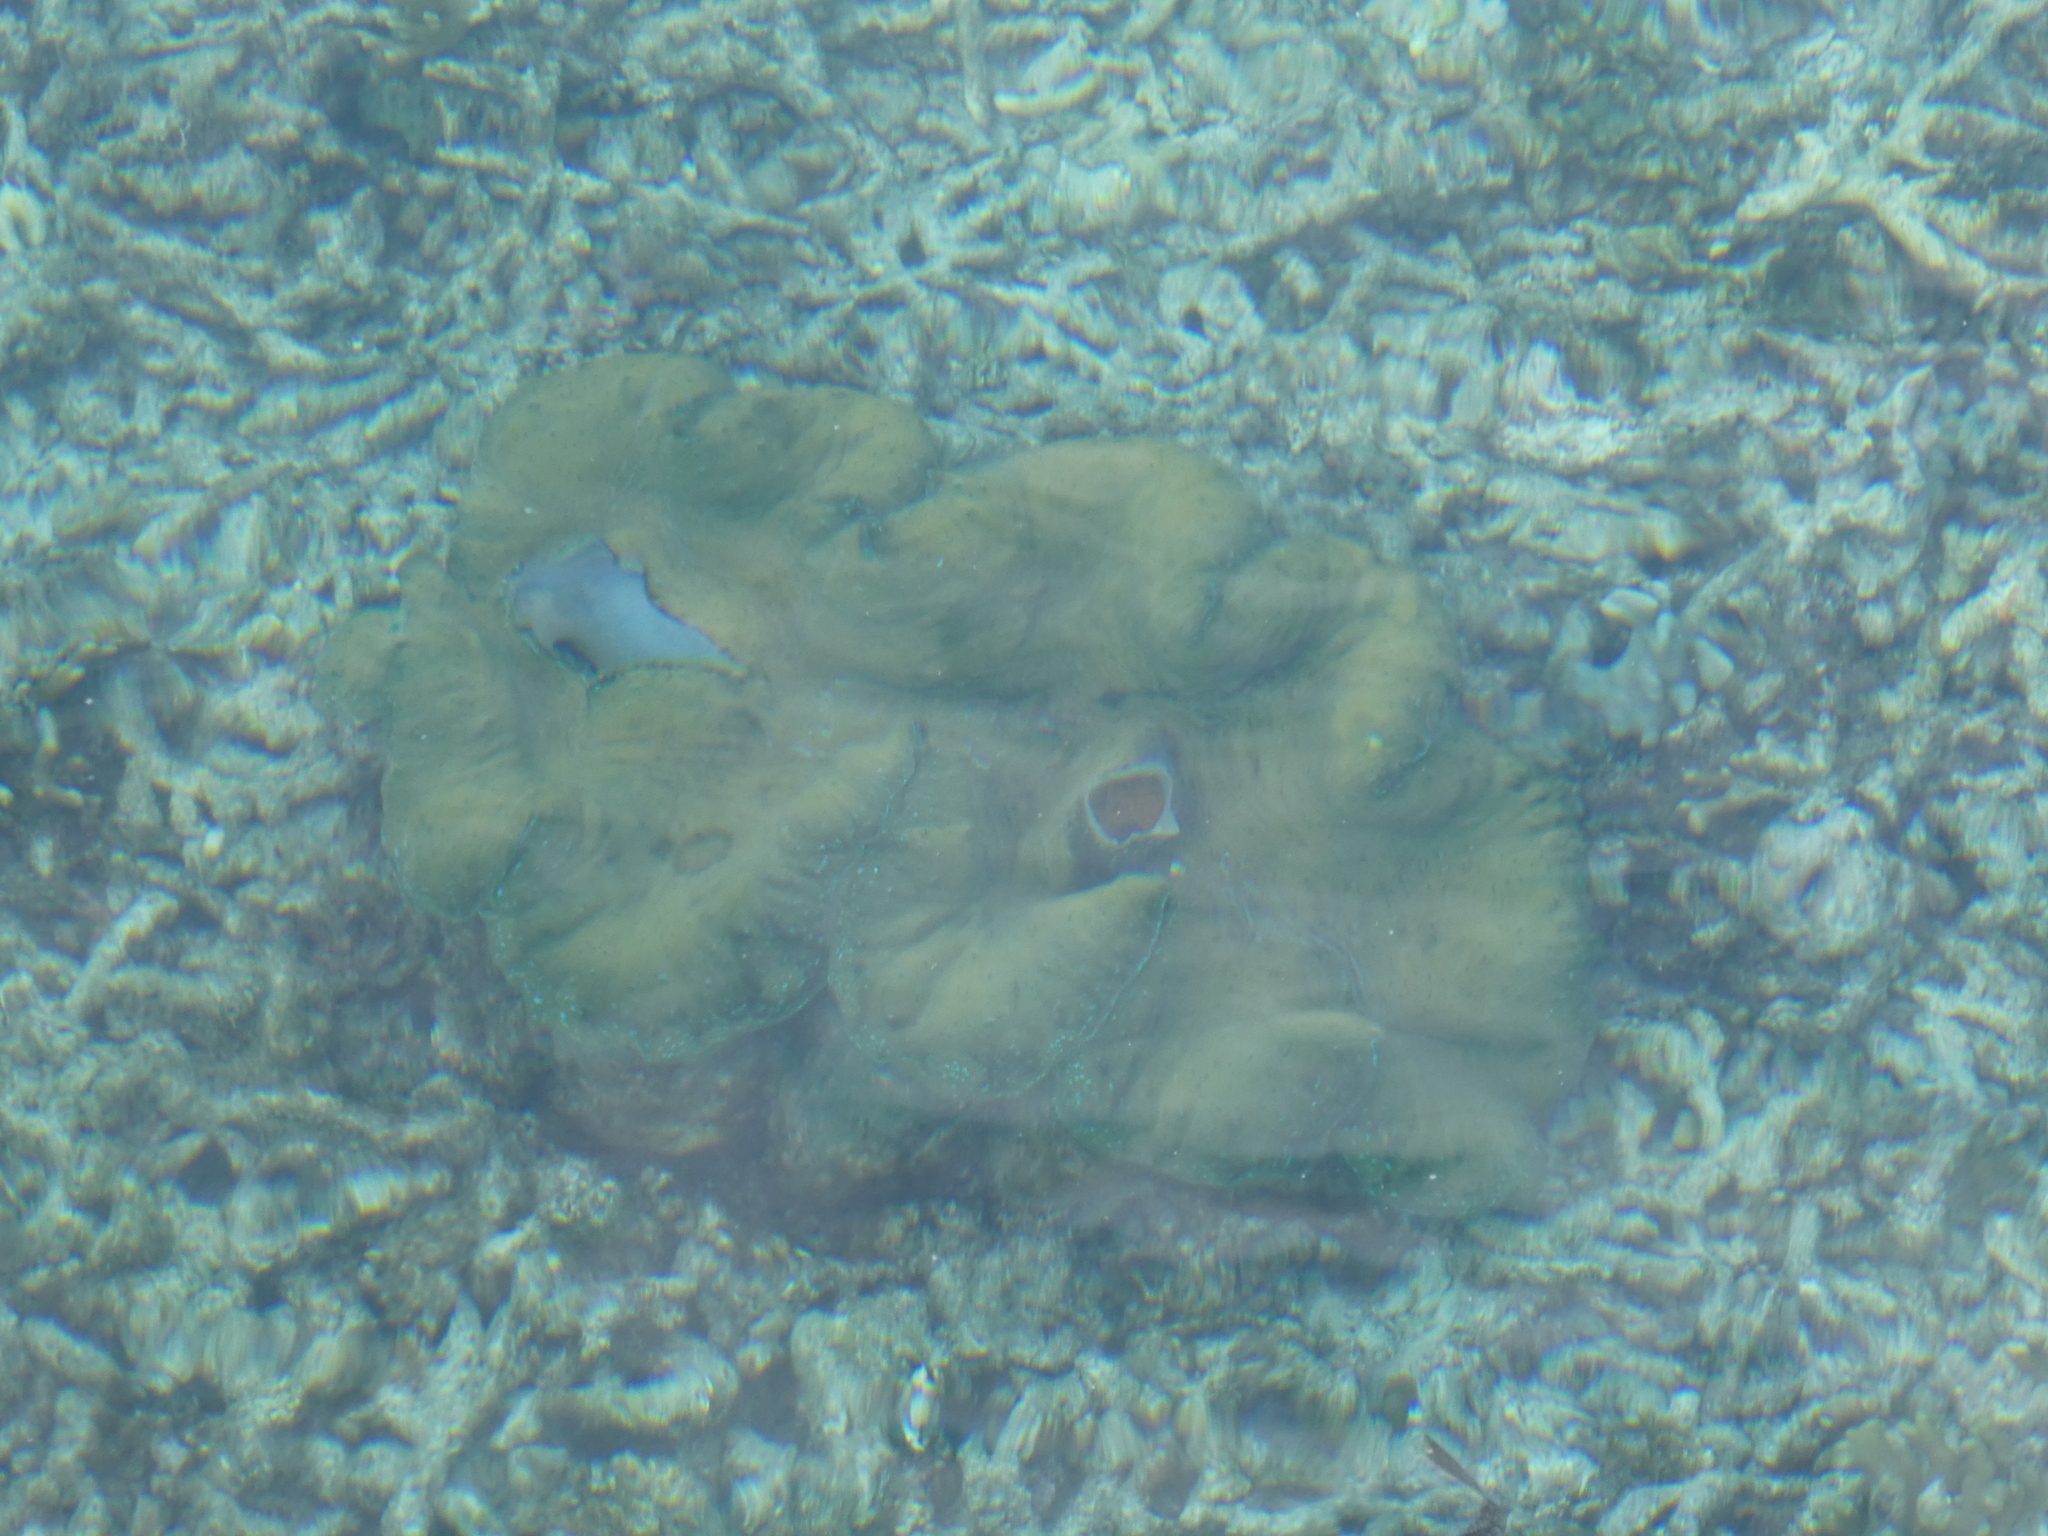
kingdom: Animalia
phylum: Mollusca
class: Bivalvia
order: Cardiida
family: Cardiidae
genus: Tridacna
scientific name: Tridacna gigas
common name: Giant clam
